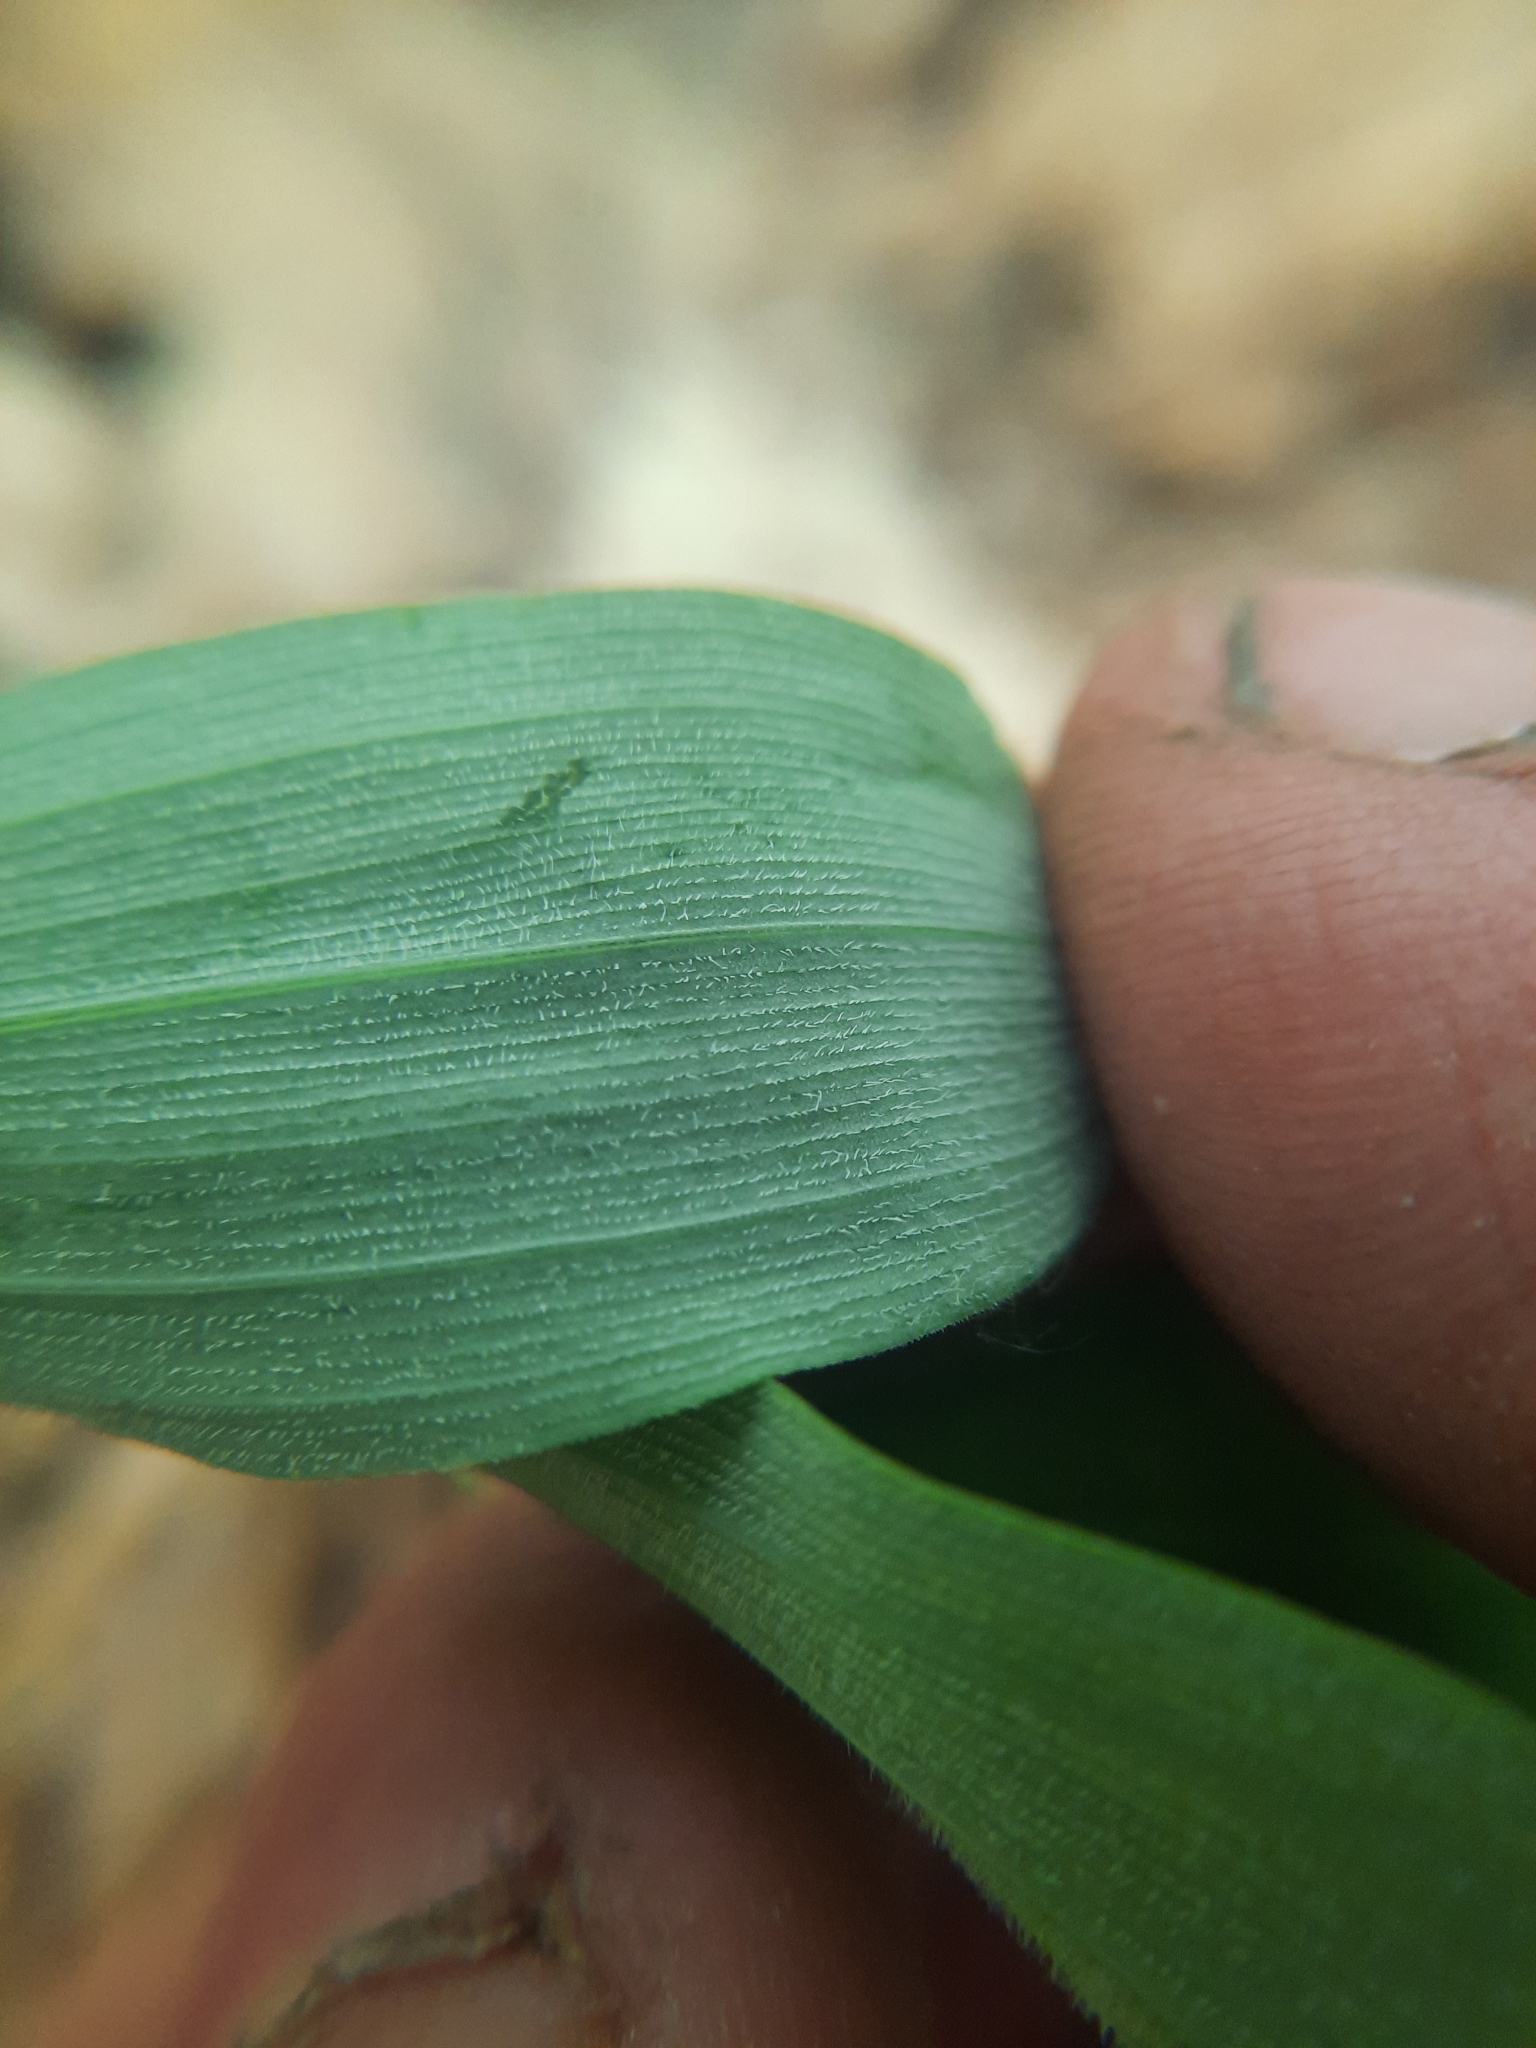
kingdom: Plantae
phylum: Tracheophyta
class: Liliopsida
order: Asparagales
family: Asparagaceae
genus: Polygonatum
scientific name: Polygonatum pubescens
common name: Downy solomon's seal
